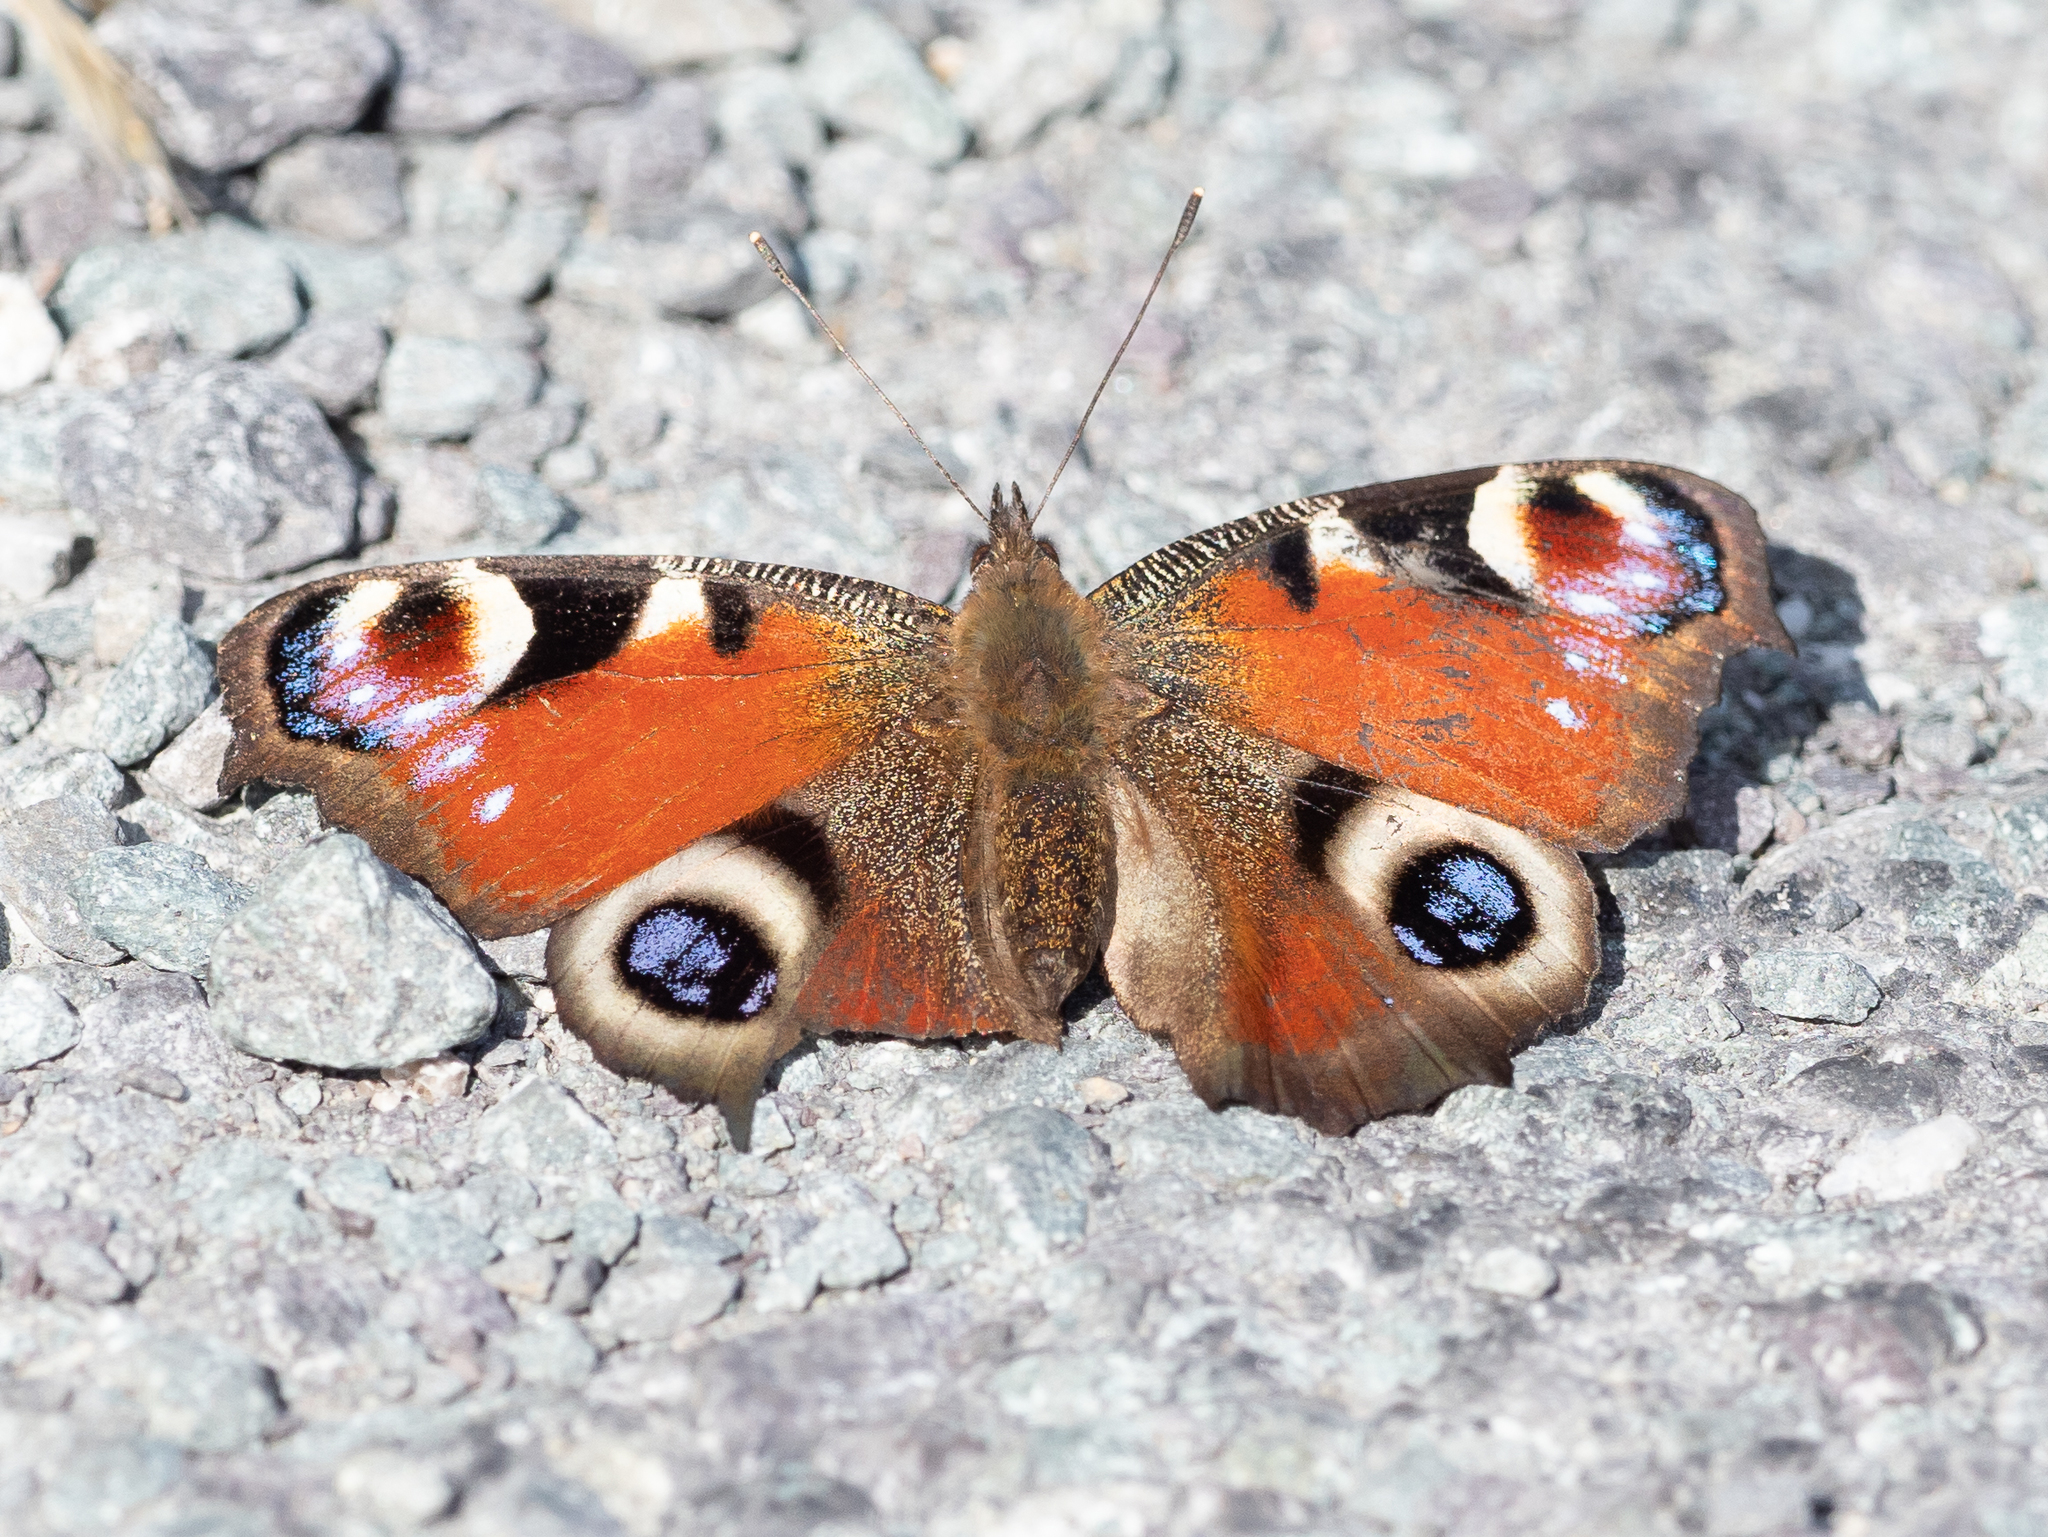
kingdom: Animalia
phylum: Arthropoda
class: Insecta
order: Lepidoptera
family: Nymphalidae
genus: Aglais
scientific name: Aglais io
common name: Peacock
